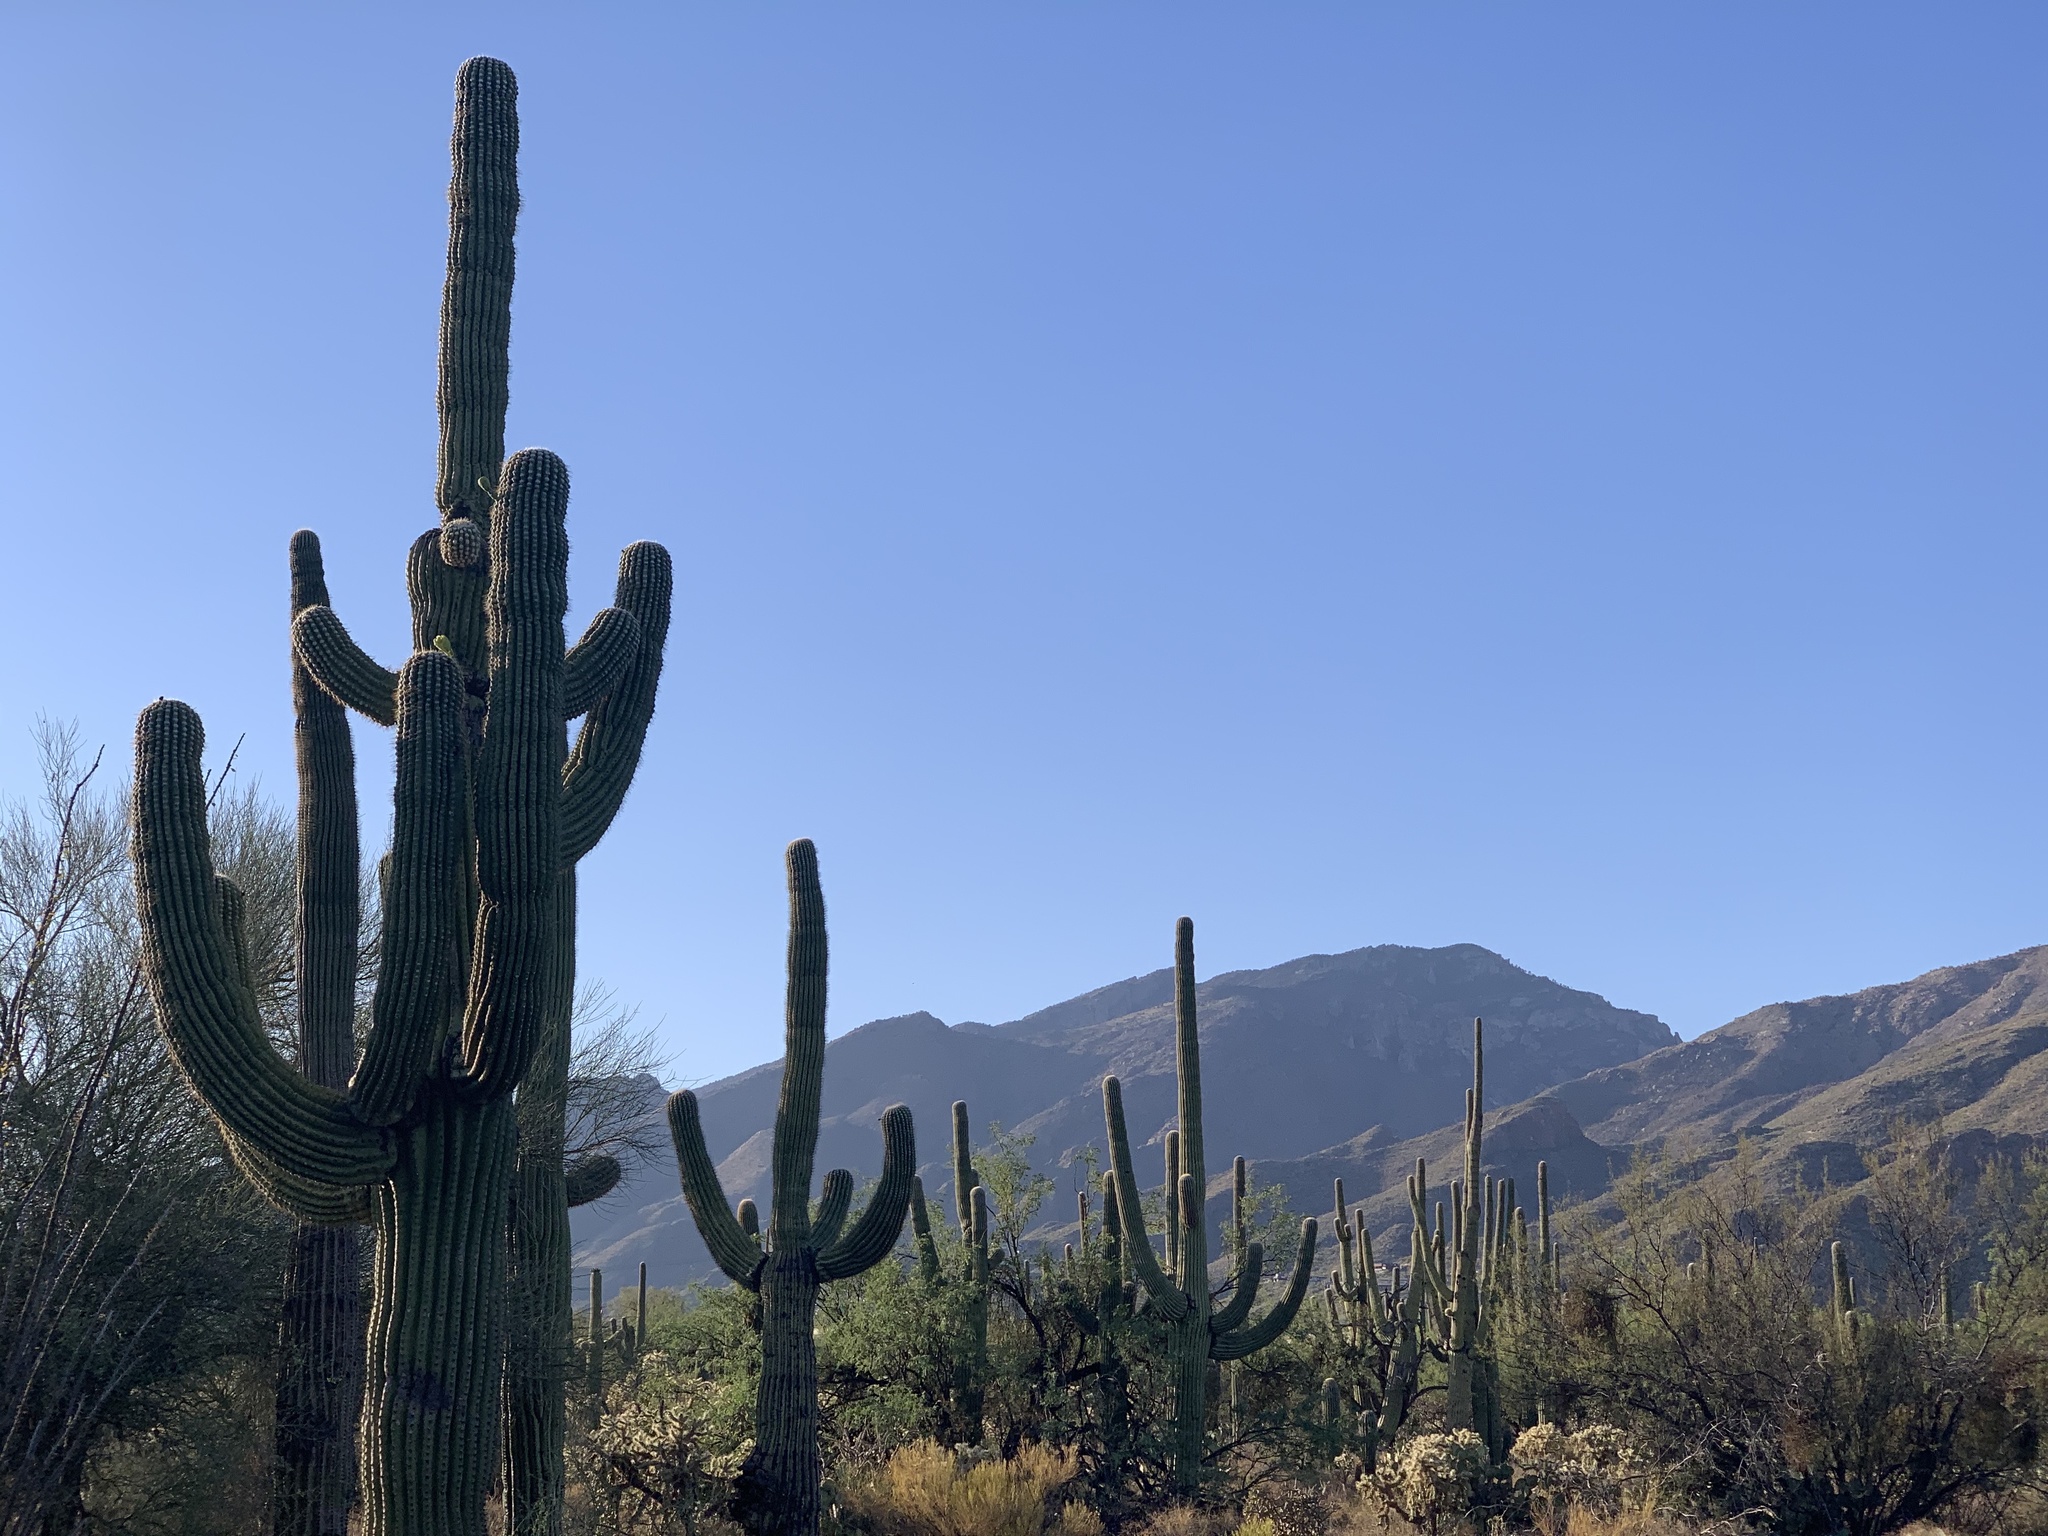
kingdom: Plantae
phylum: Tracheophyta
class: Magnoliopsida
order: Caryophyllales
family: Cactaceae
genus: Carnegiea
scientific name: Carnegiea gigantea
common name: Saguaro
